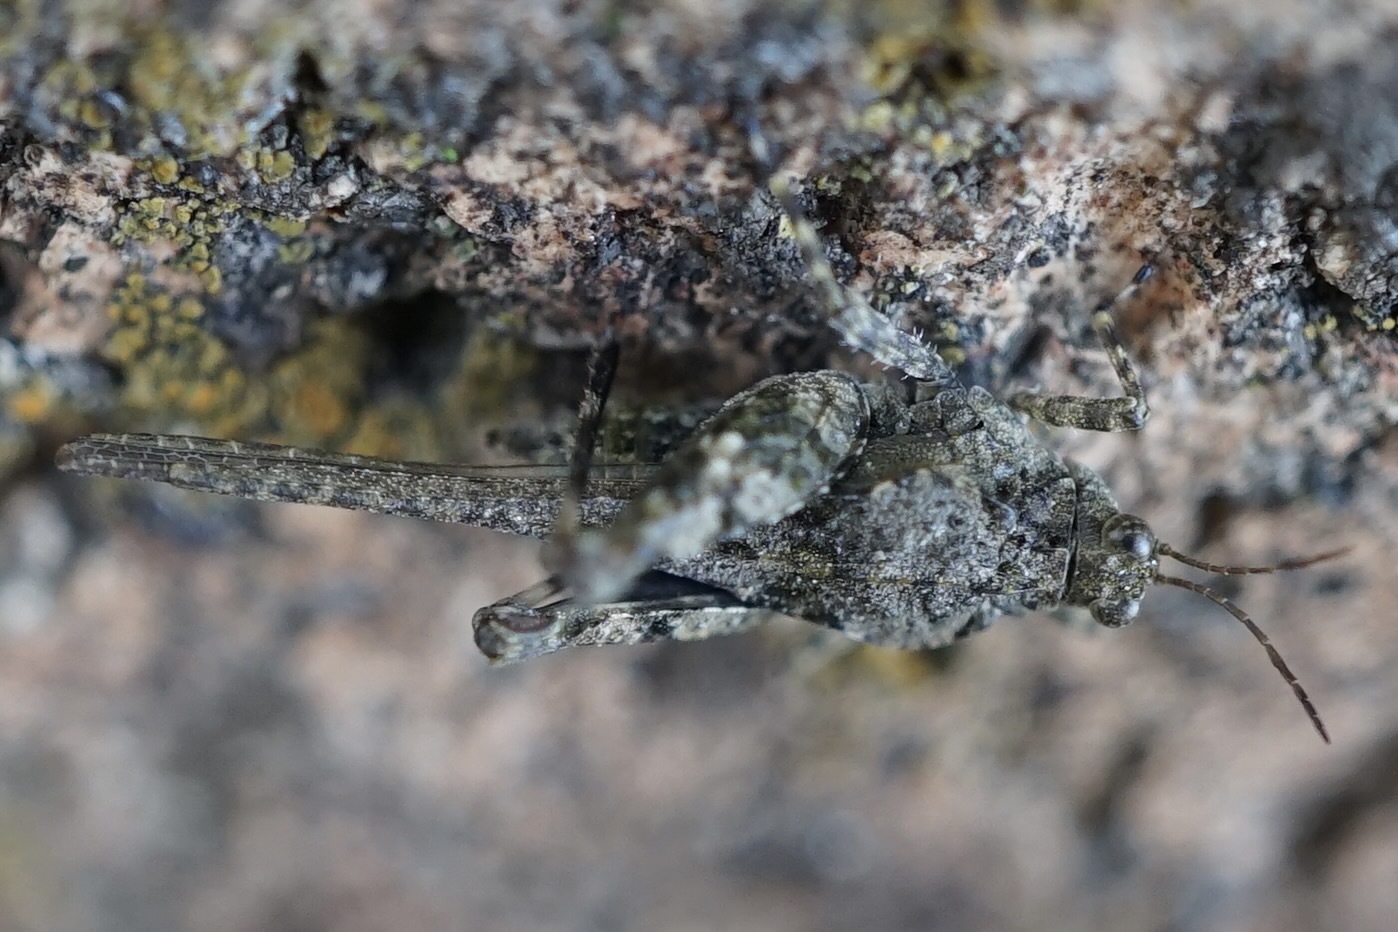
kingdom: Animalia
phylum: Arthropoda
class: Insecta
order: Orthoptera
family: Tetrigidae
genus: Ergatettix
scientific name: Ergatettix dorsifer
